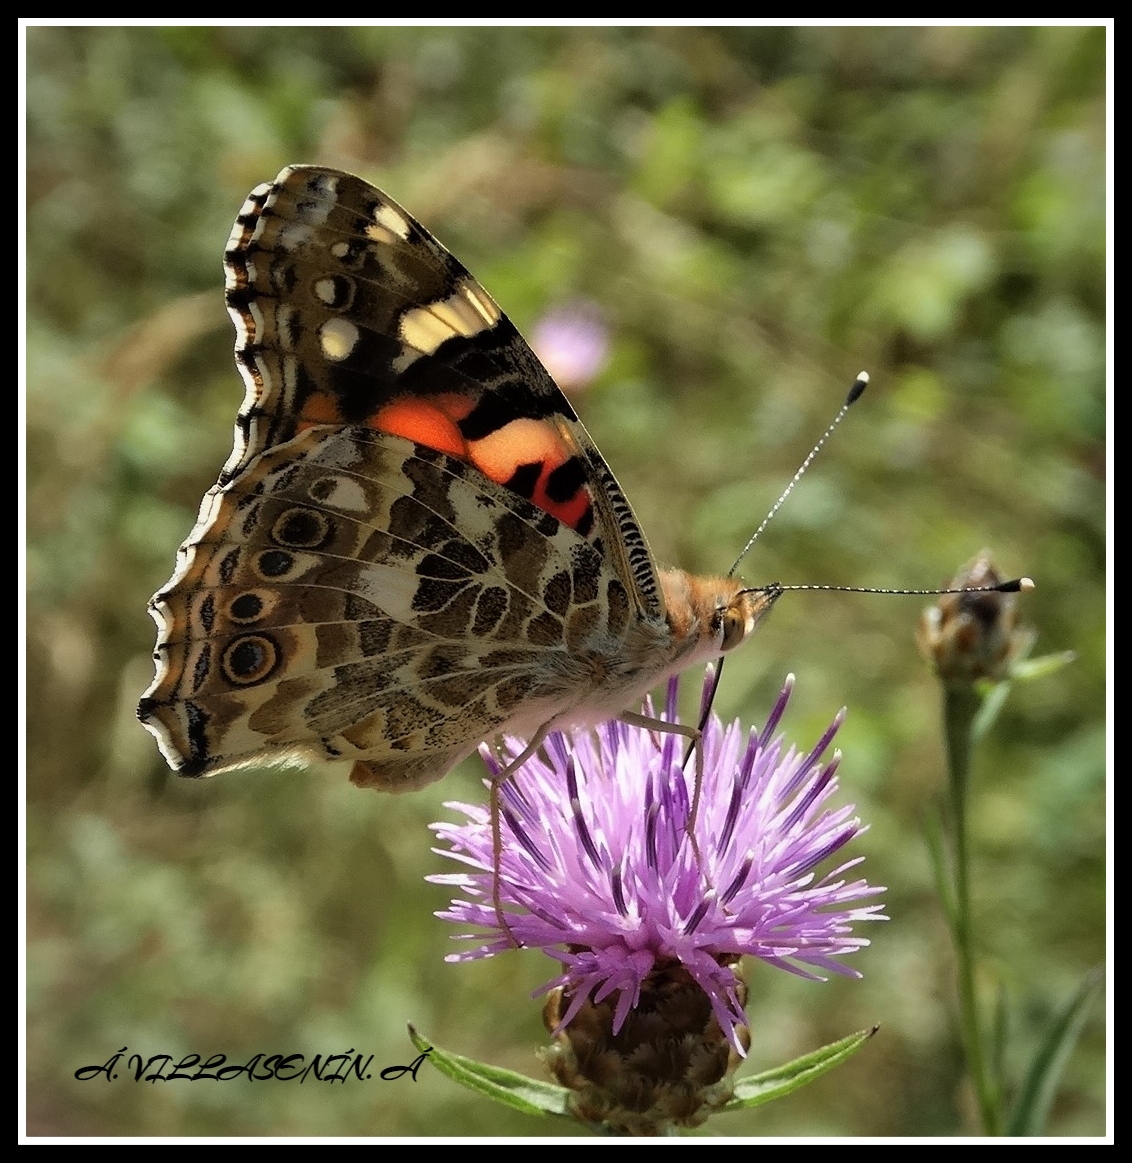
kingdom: Animalia
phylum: Arthropoda
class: Insecta
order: Lepidoptera
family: Nymphalidae
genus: Vanessa
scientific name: Vanessa cardui
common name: Painted lady
